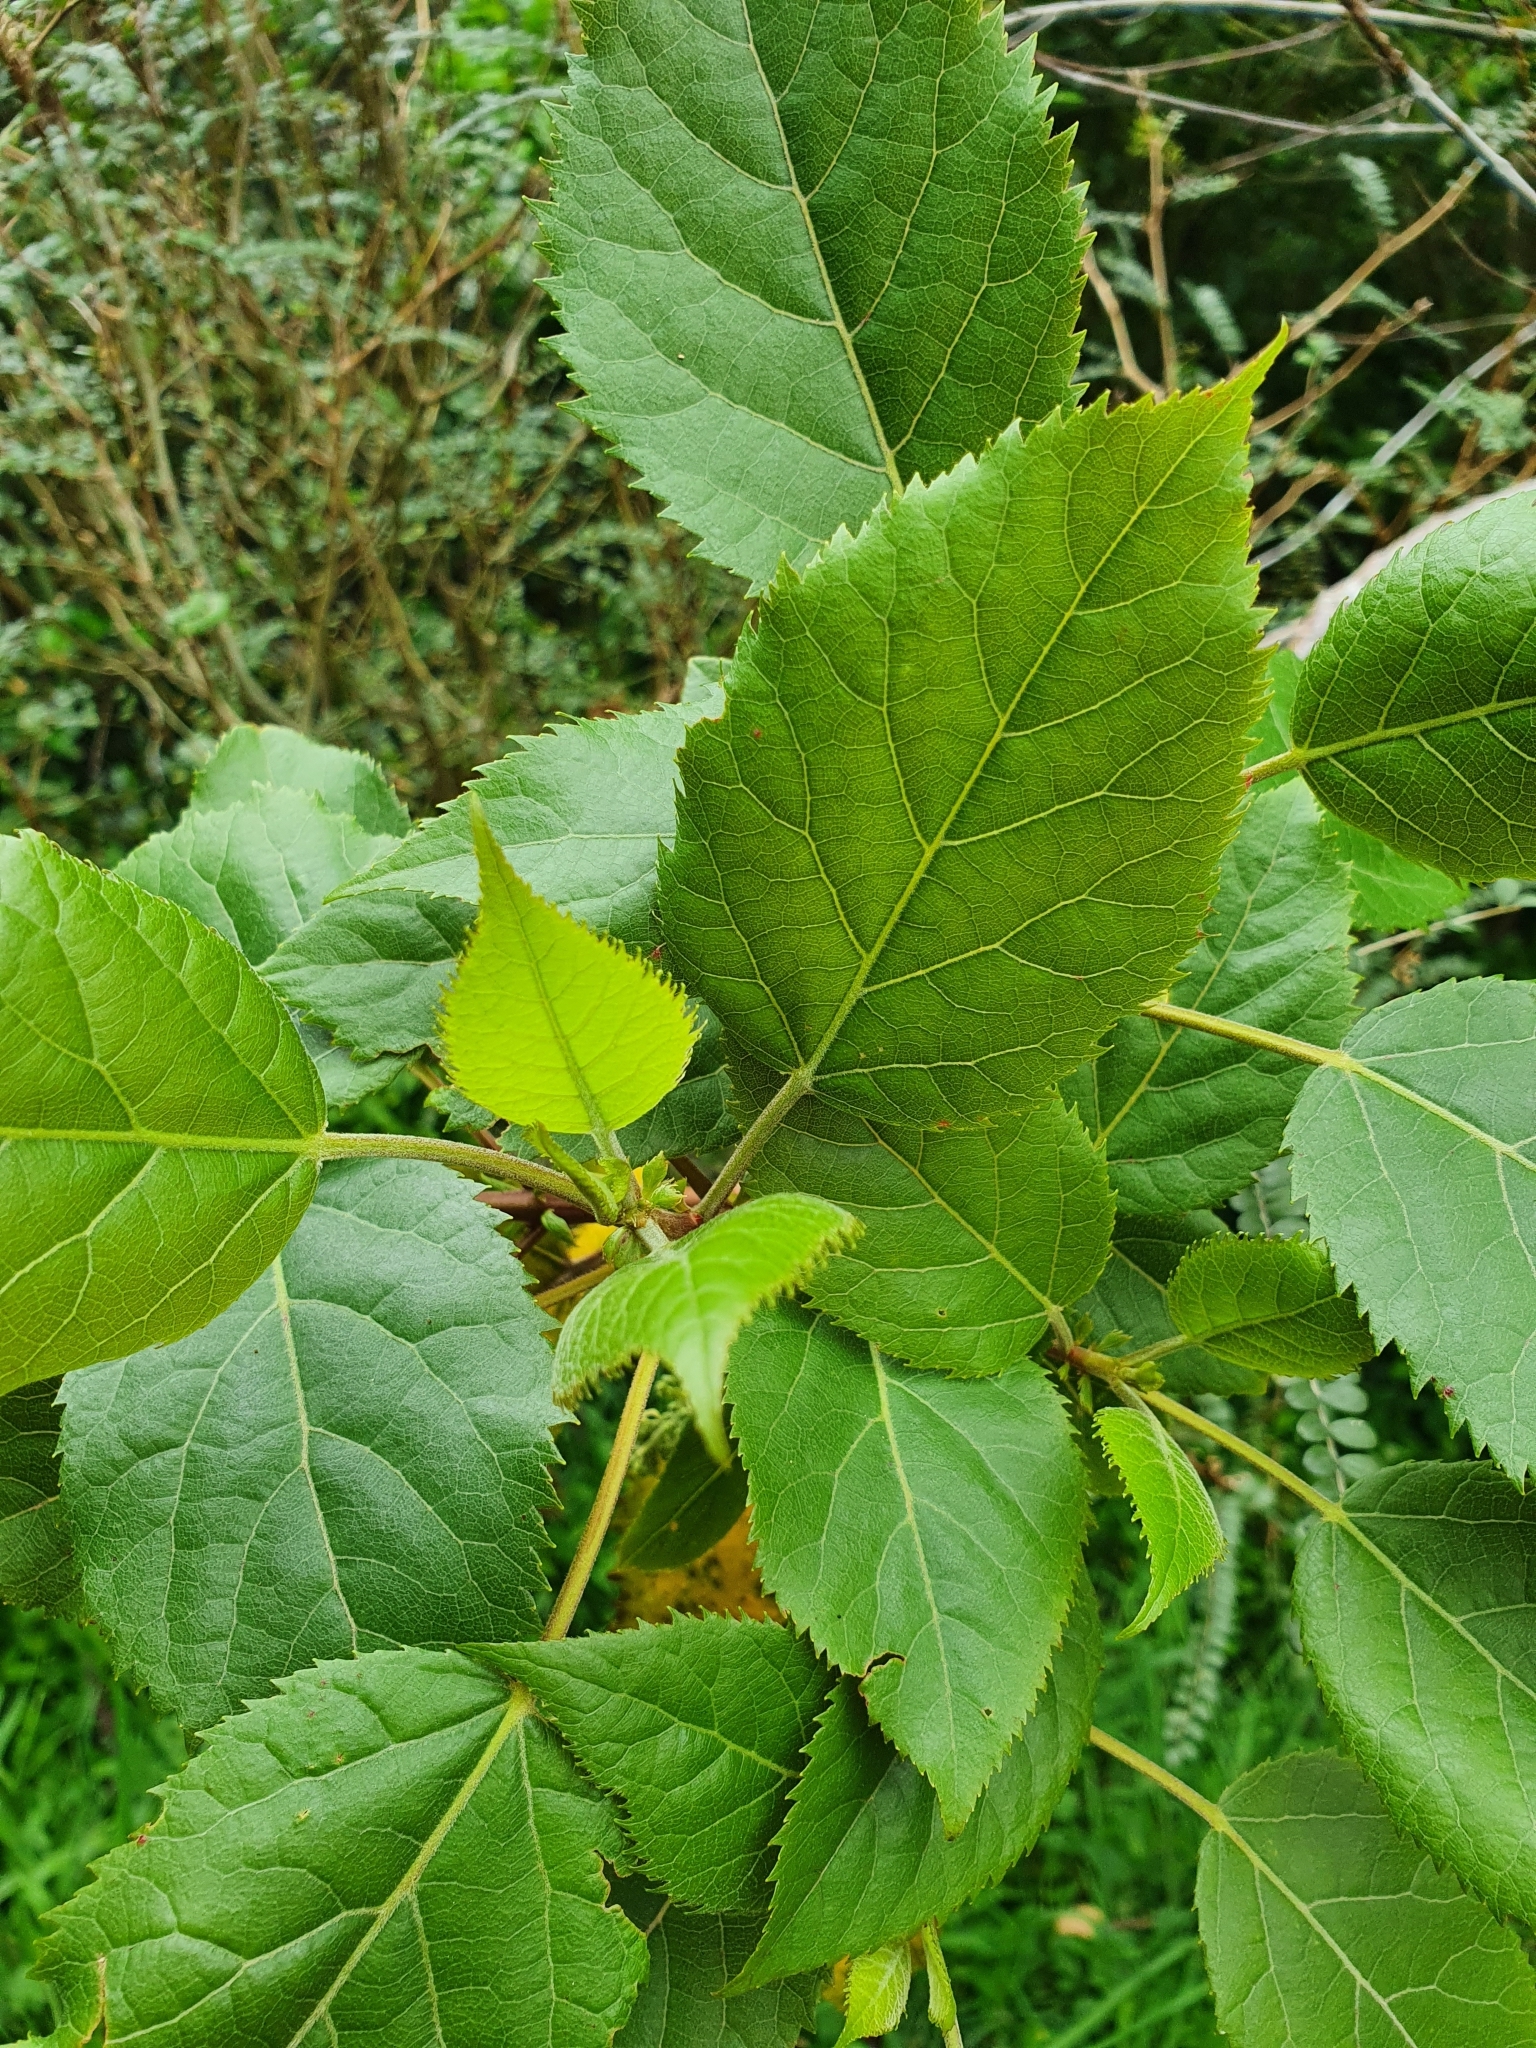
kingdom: Plantae
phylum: Tracheophyta
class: Magnoliopsida
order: Oxalidales
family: Elaeocarpaceae
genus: Aristotelia
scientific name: Aristotelia serrata
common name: New zealand wineberry
